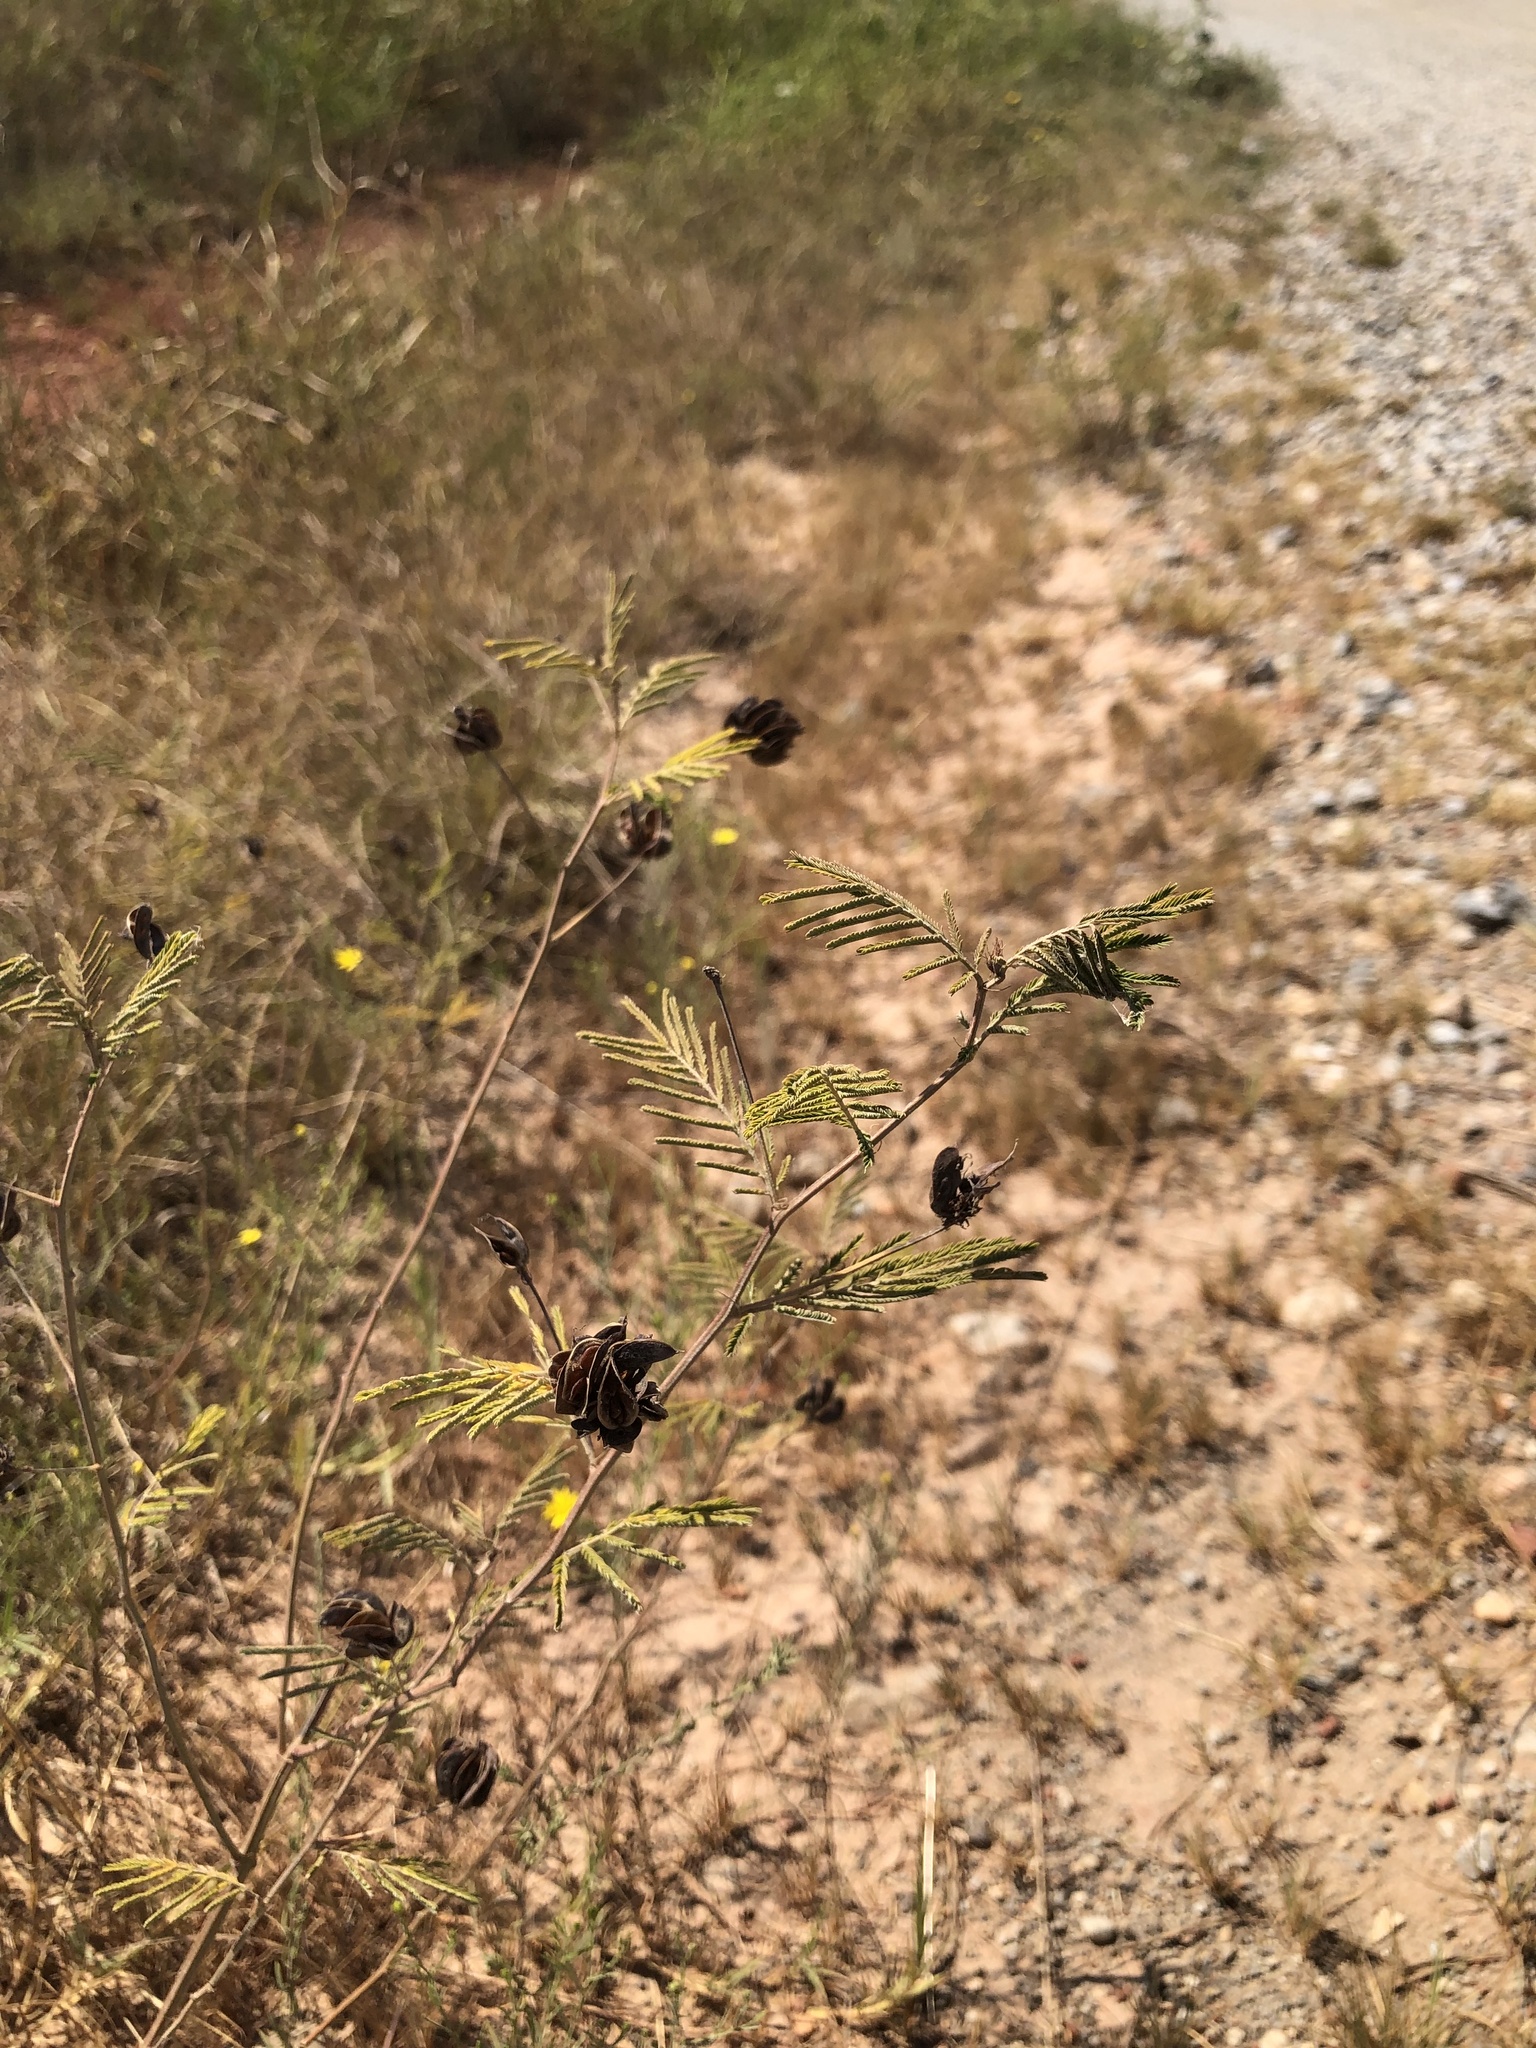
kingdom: Plantae
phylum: Tracheophyta
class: Magnoliopsida
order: Fabales
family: Fabaceae
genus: Desmanthus
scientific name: Desmanthus illinoensis
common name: Illinois bundle-flower
